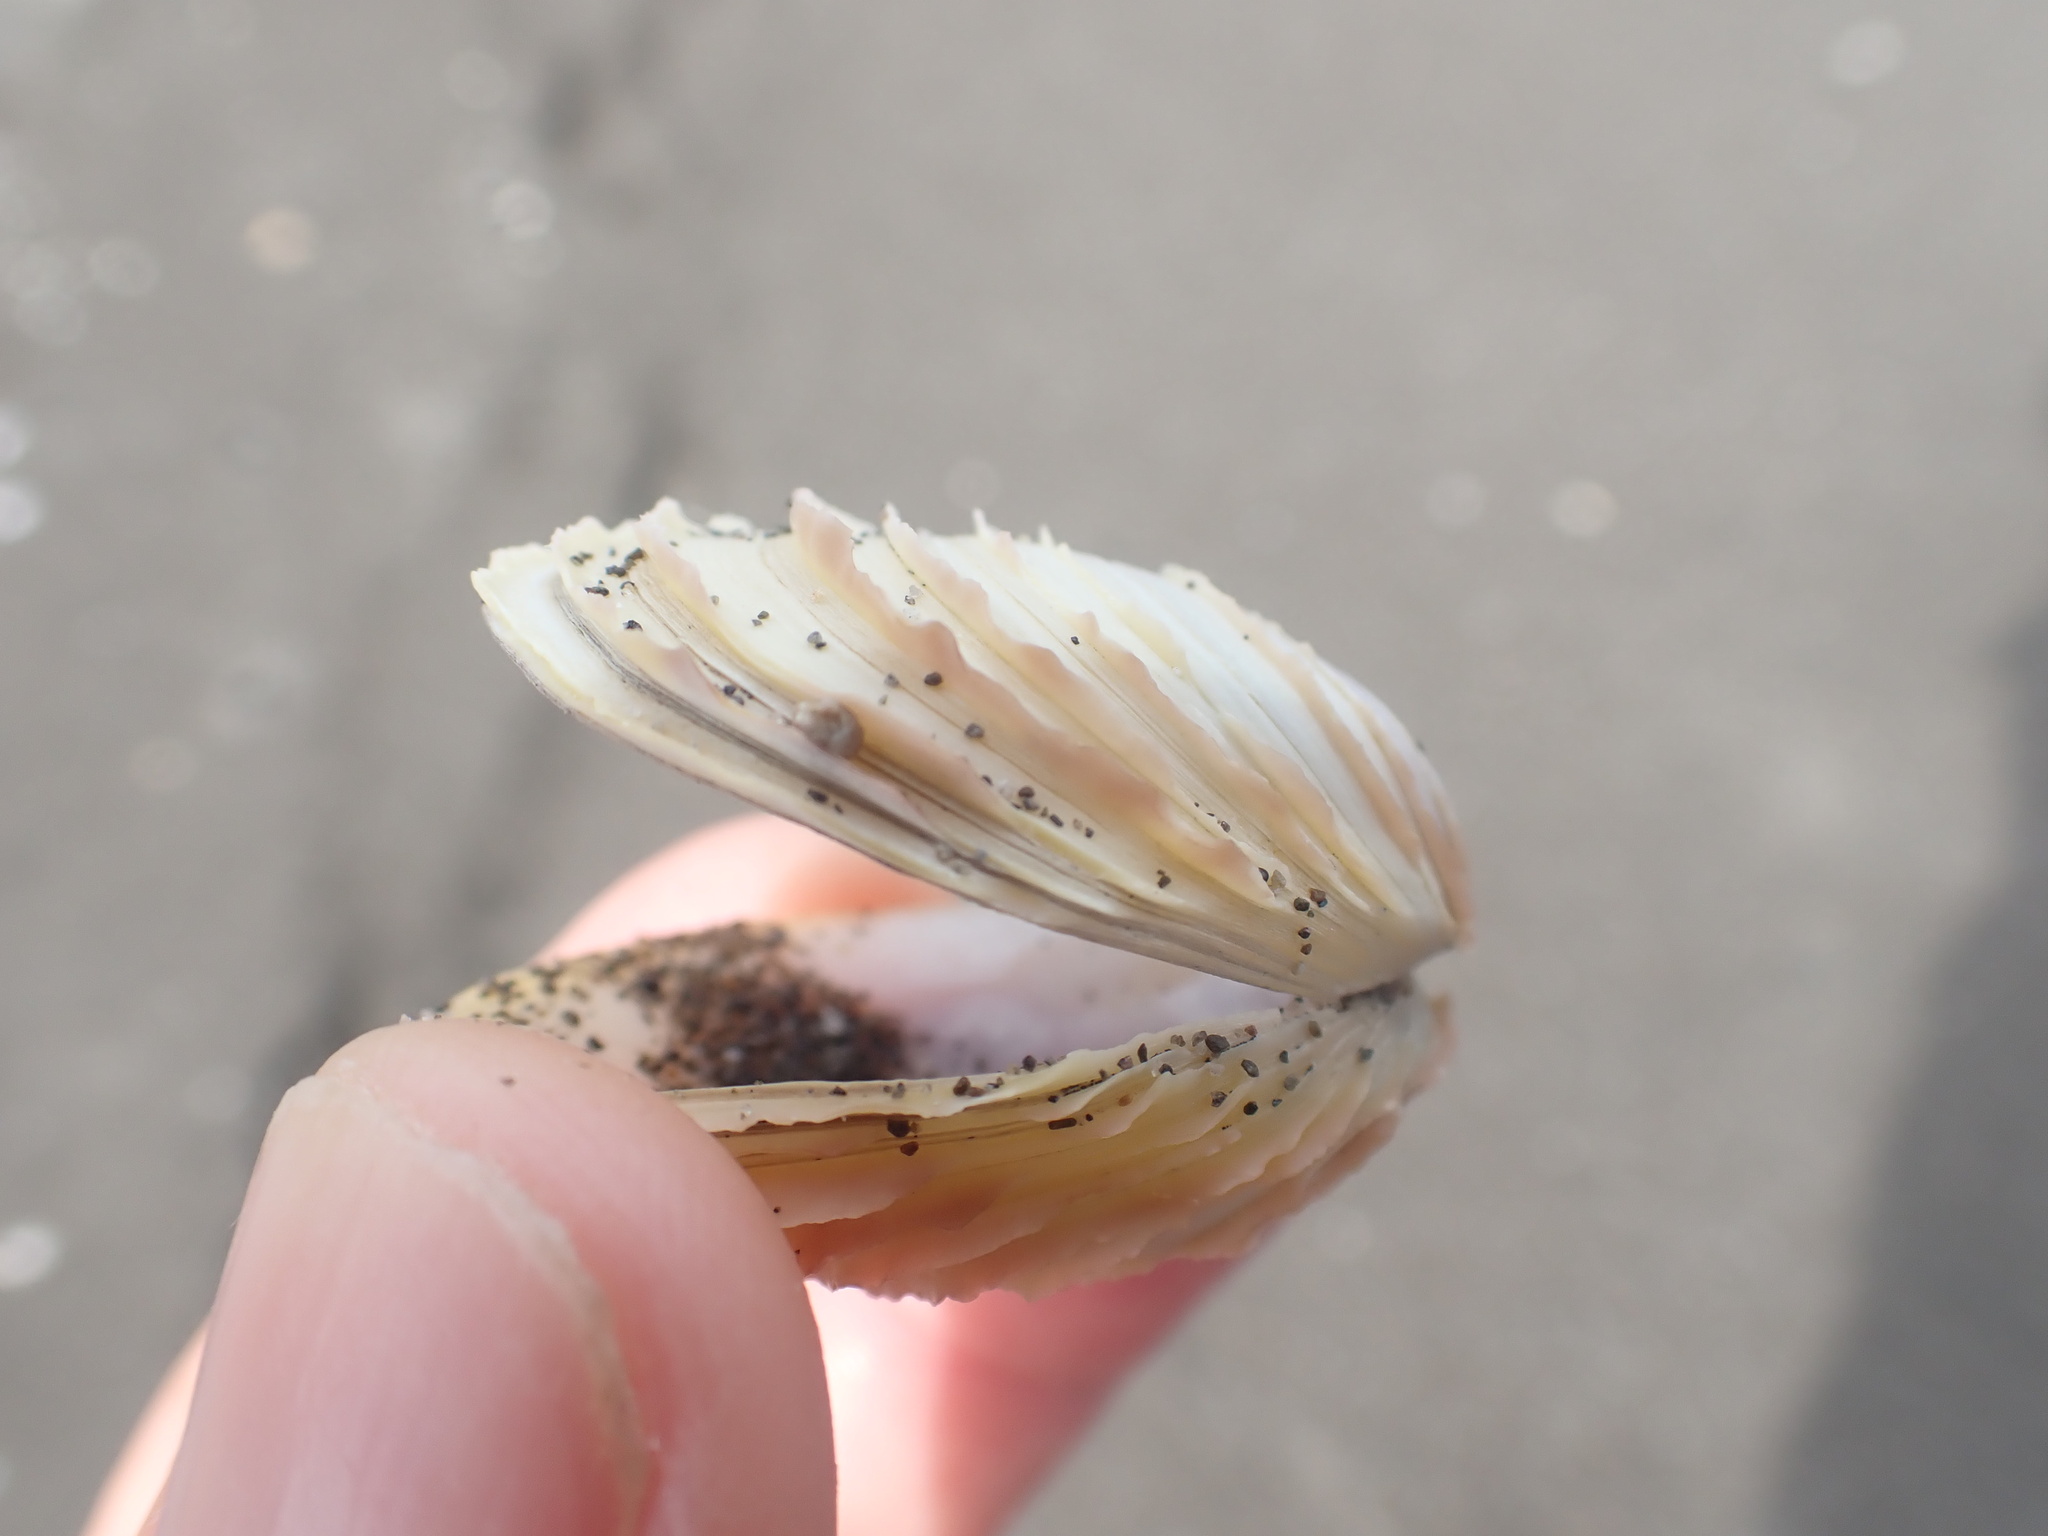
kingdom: Animalia
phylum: Mollusca
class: Bivalvia
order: Venerida
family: Veneridae
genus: Bassina
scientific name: Bassina yatei
